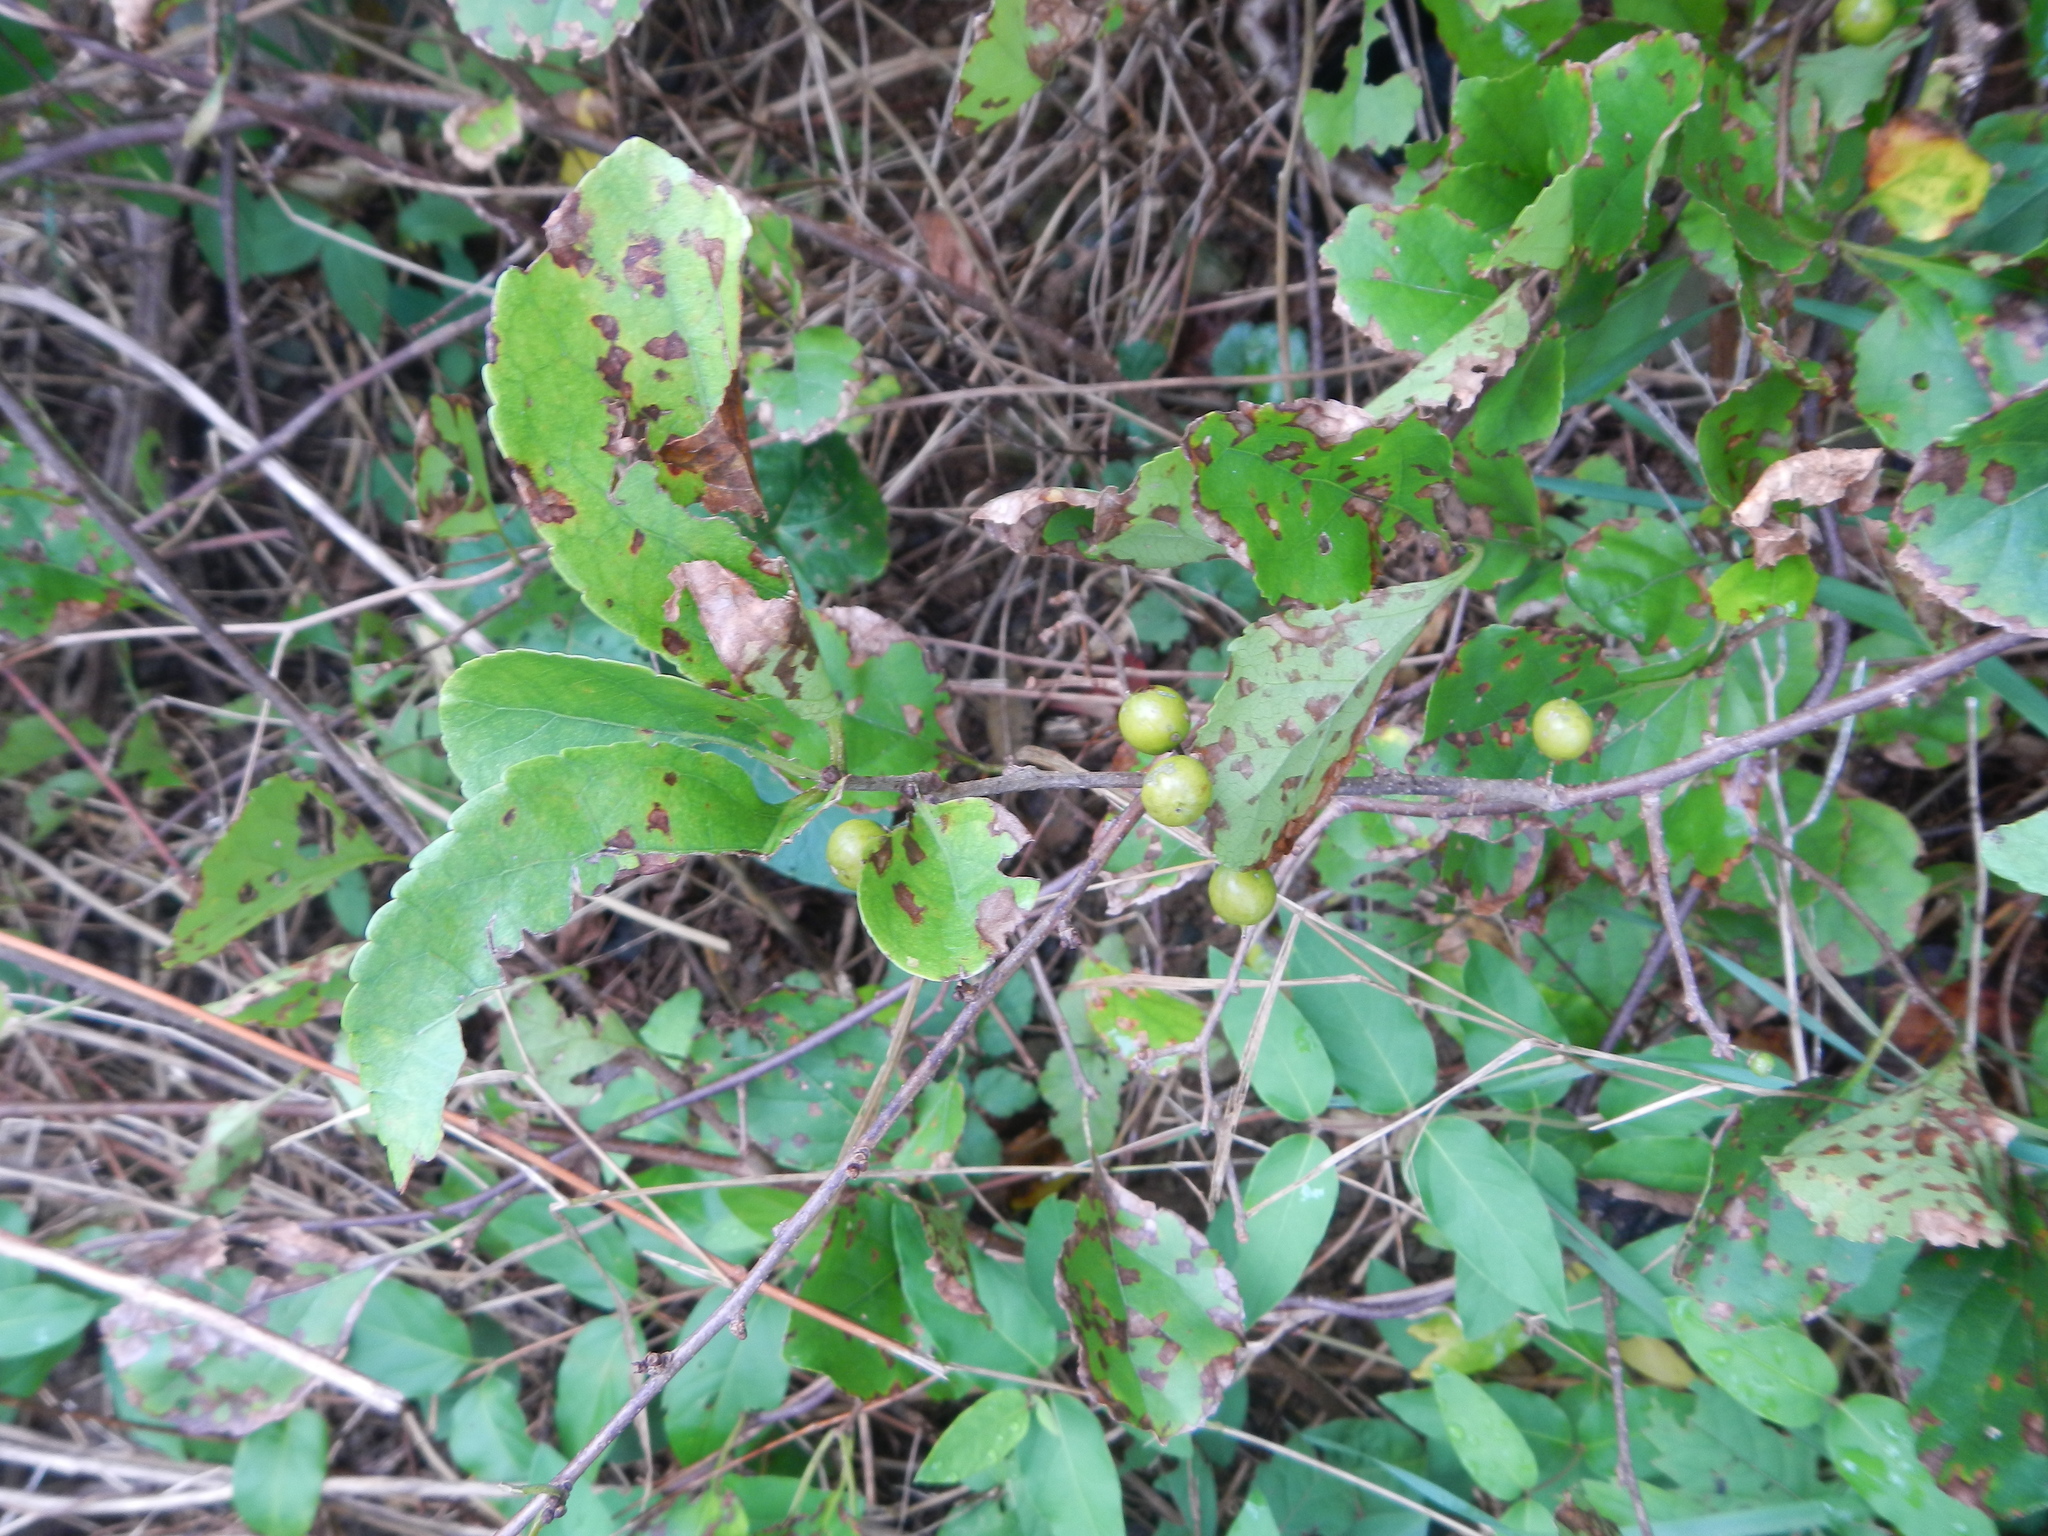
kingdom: Plantae
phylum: Tracheophyta
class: Magnoliopsida
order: Celastrales
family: Celastraceae
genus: Celastrus
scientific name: Celastrus orbiculatus
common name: Oriental bittersweet
